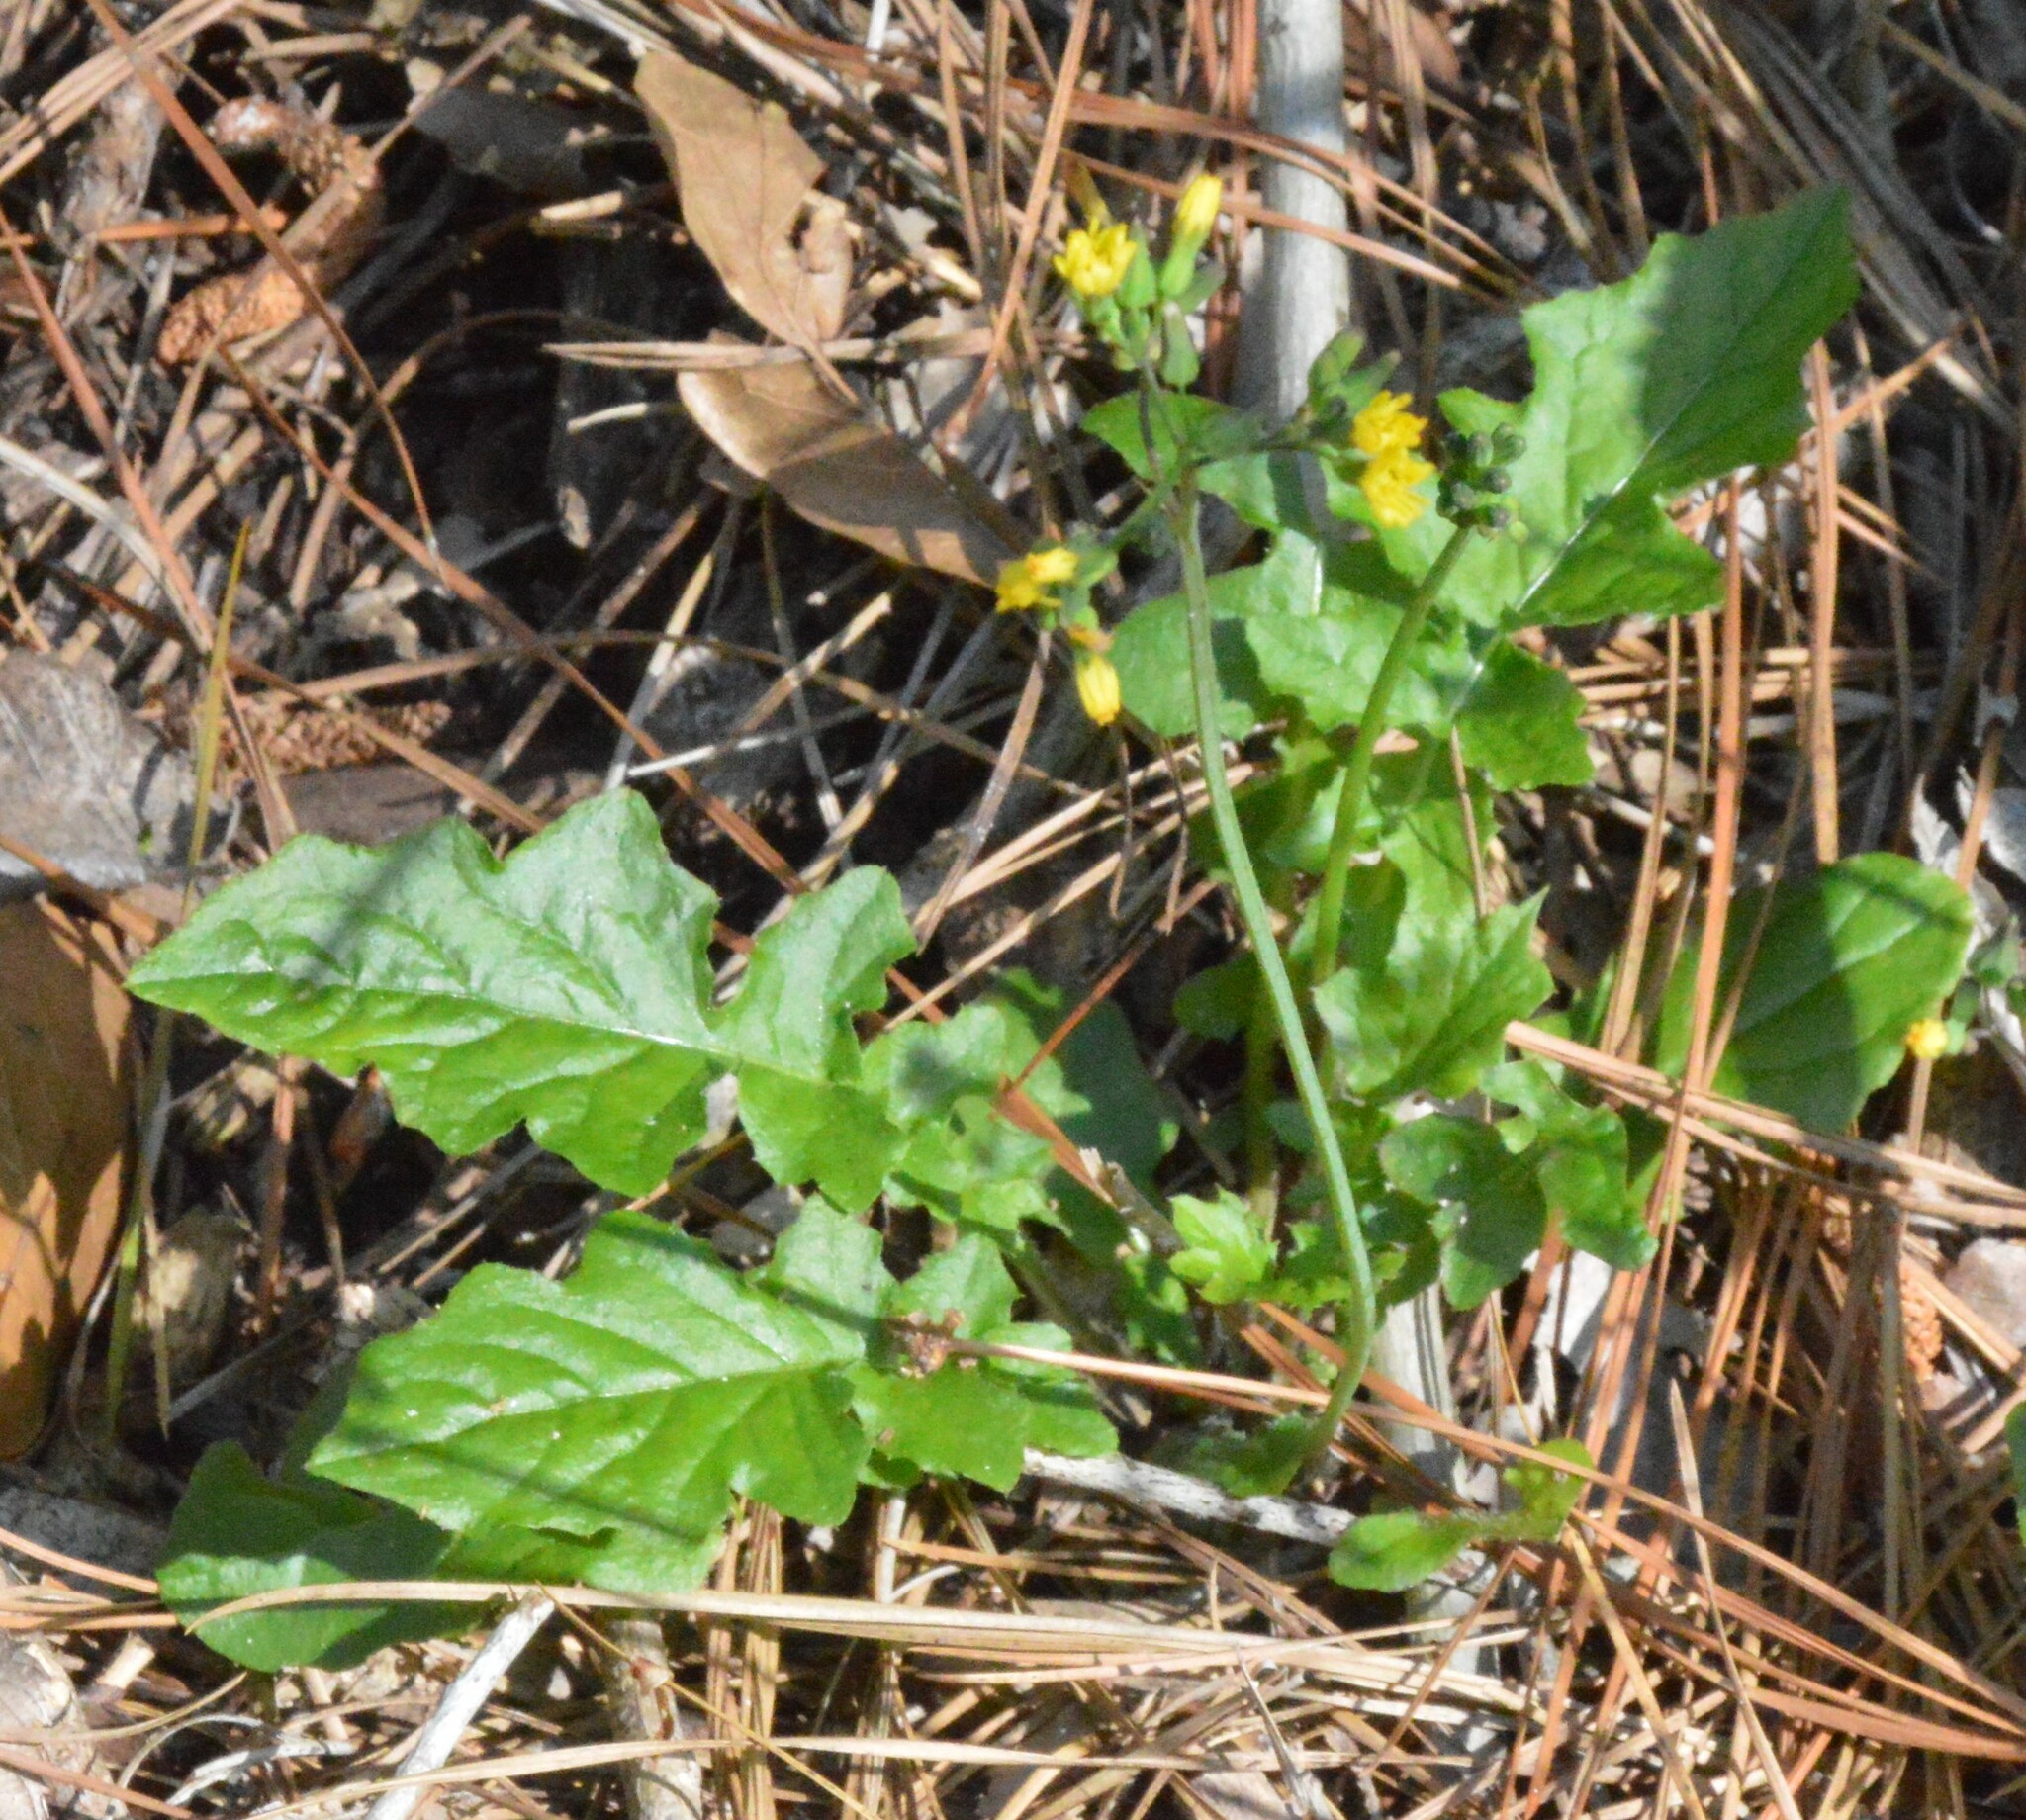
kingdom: Plantae
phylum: Tracheophyta
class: Magnoliopsida
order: Asterales
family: Asteraceae
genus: Youngia
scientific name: Youngia japonica
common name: Oriental false hawksbeard
